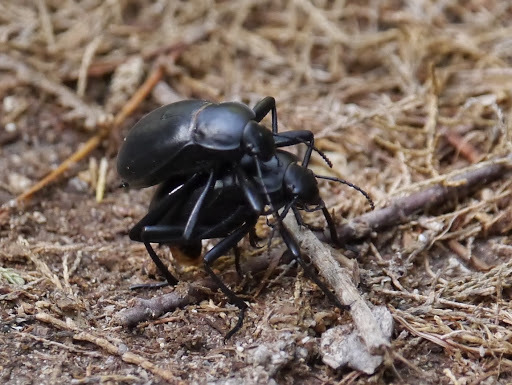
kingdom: Animalia
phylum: Arthropoda
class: Insecta
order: Coleoptera
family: Tenebrionidae
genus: Blaps
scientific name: Blaps gigas
